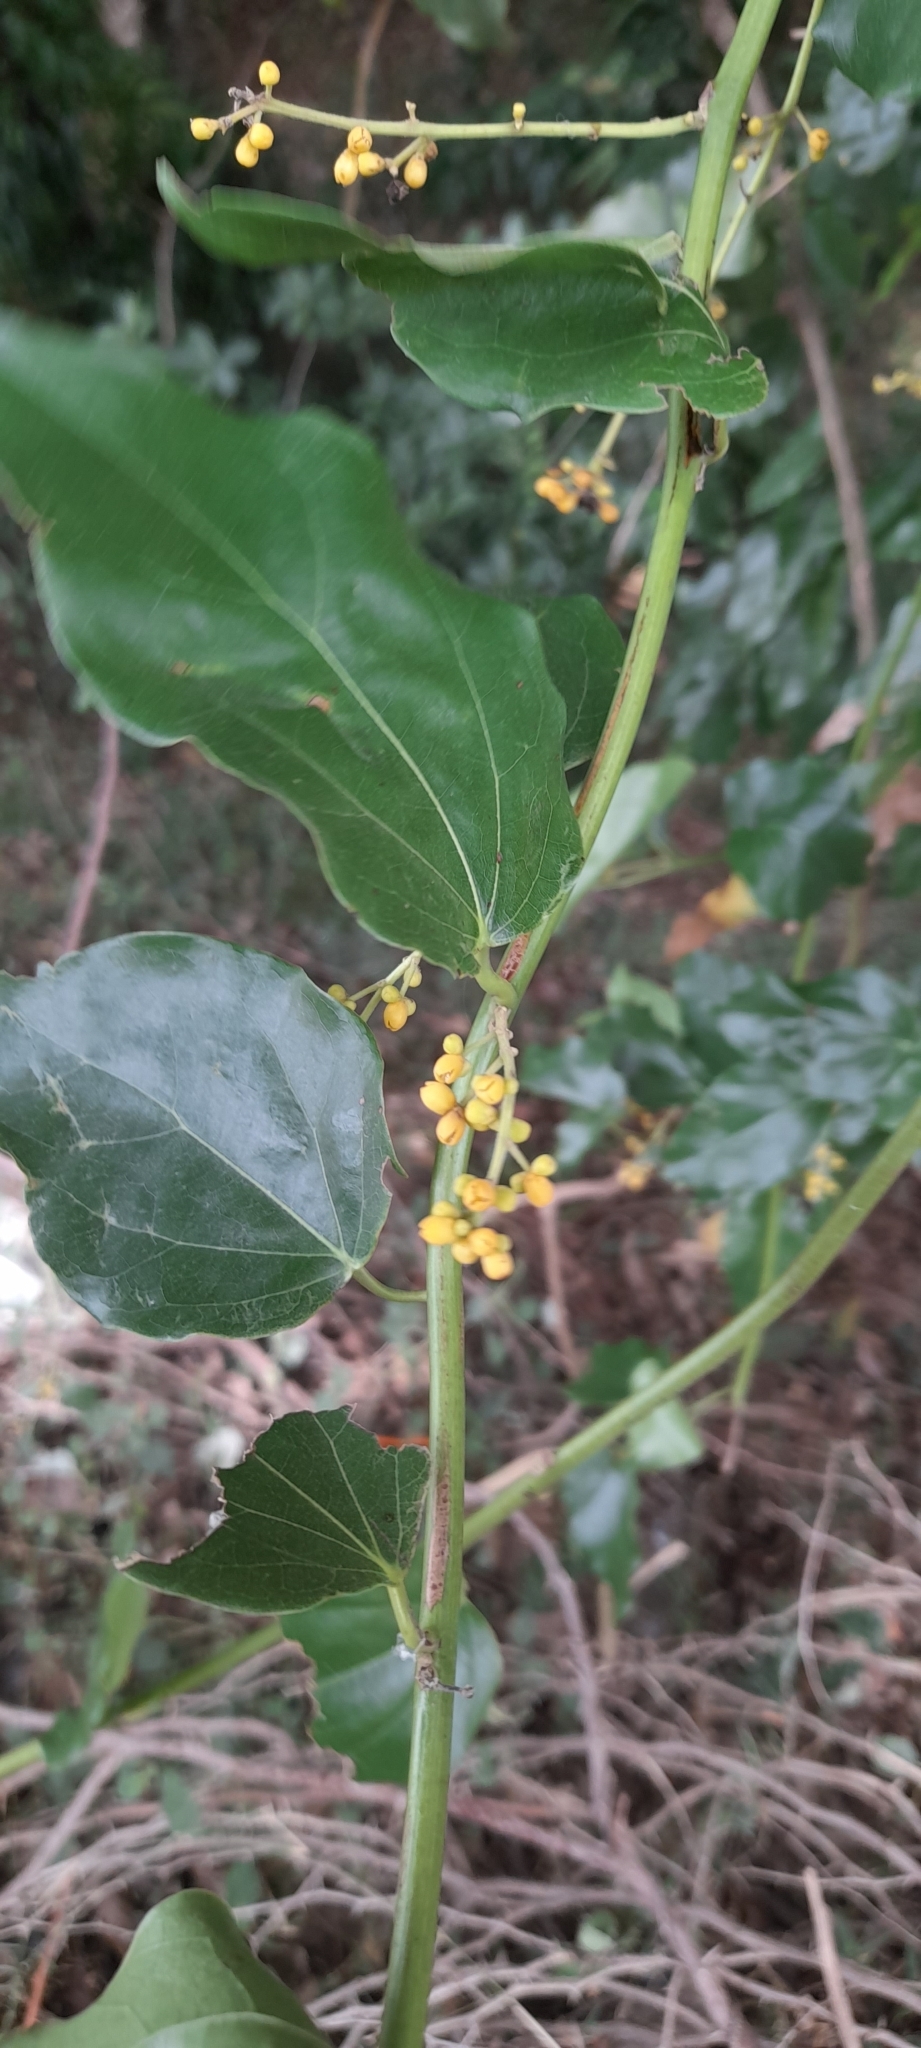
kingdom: Plantae
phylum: Tracheophyta
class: Magnoliopsida
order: Ranunculales
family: Menispermaceae
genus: Tiliacora
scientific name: Tiliacora acuminata
